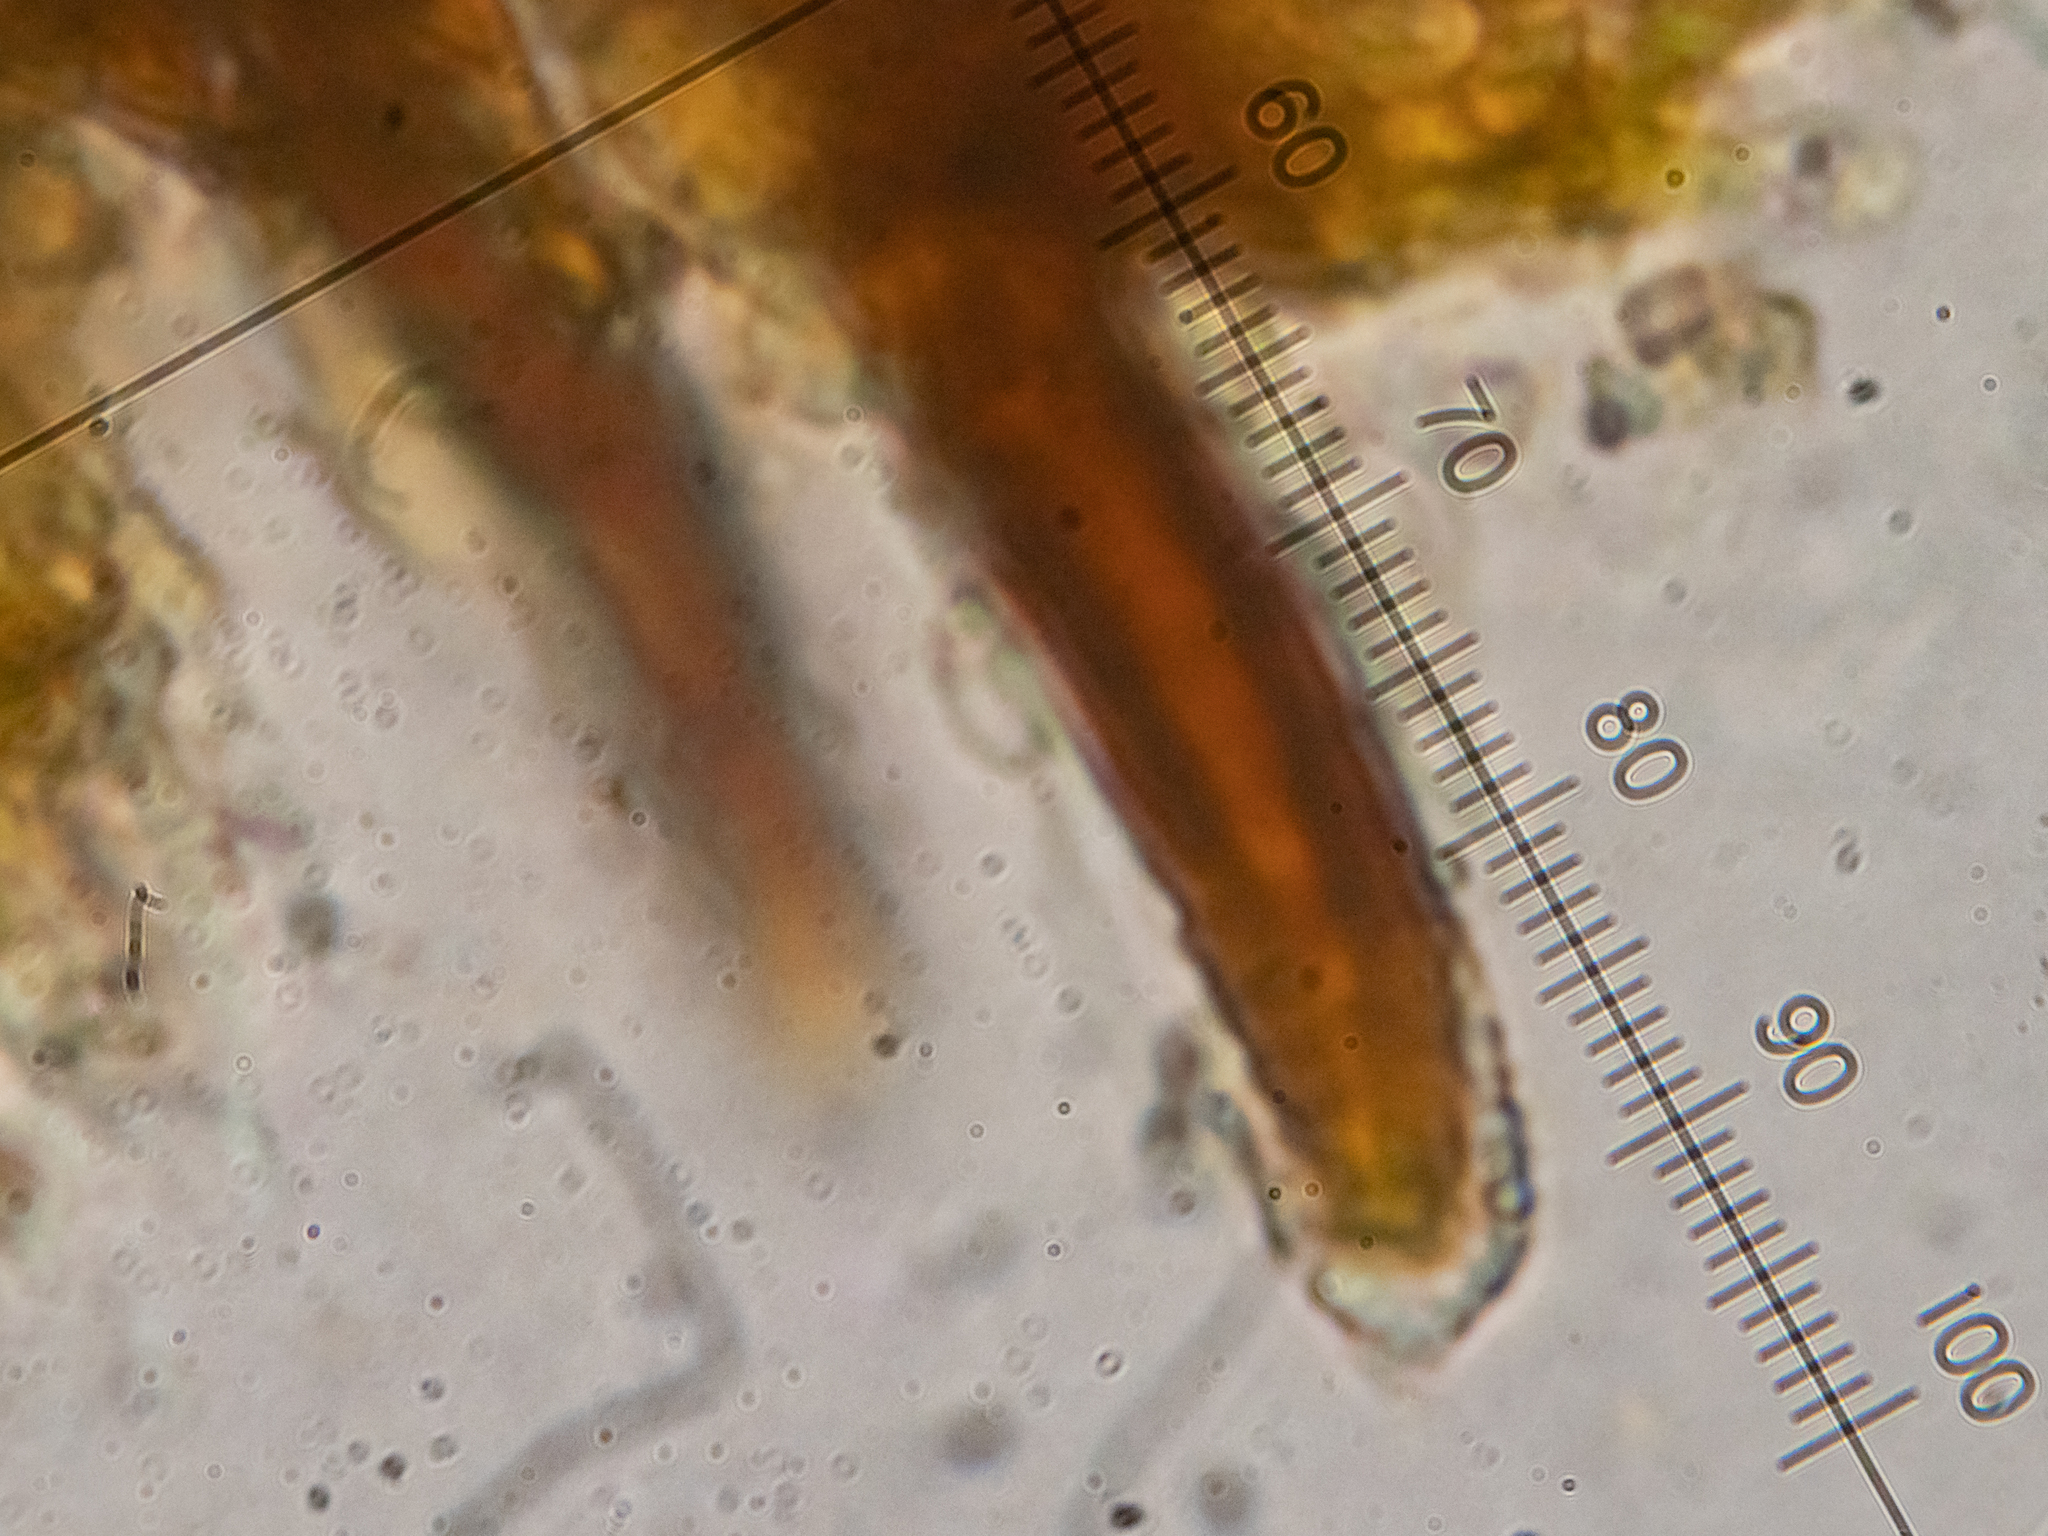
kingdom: Fungi
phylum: Basidiomycota
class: Agaricomycetes
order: Hymenochaetales
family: Hymenochaetaceae
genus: Hydnoporia
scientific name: Hydnoporia corrugata
